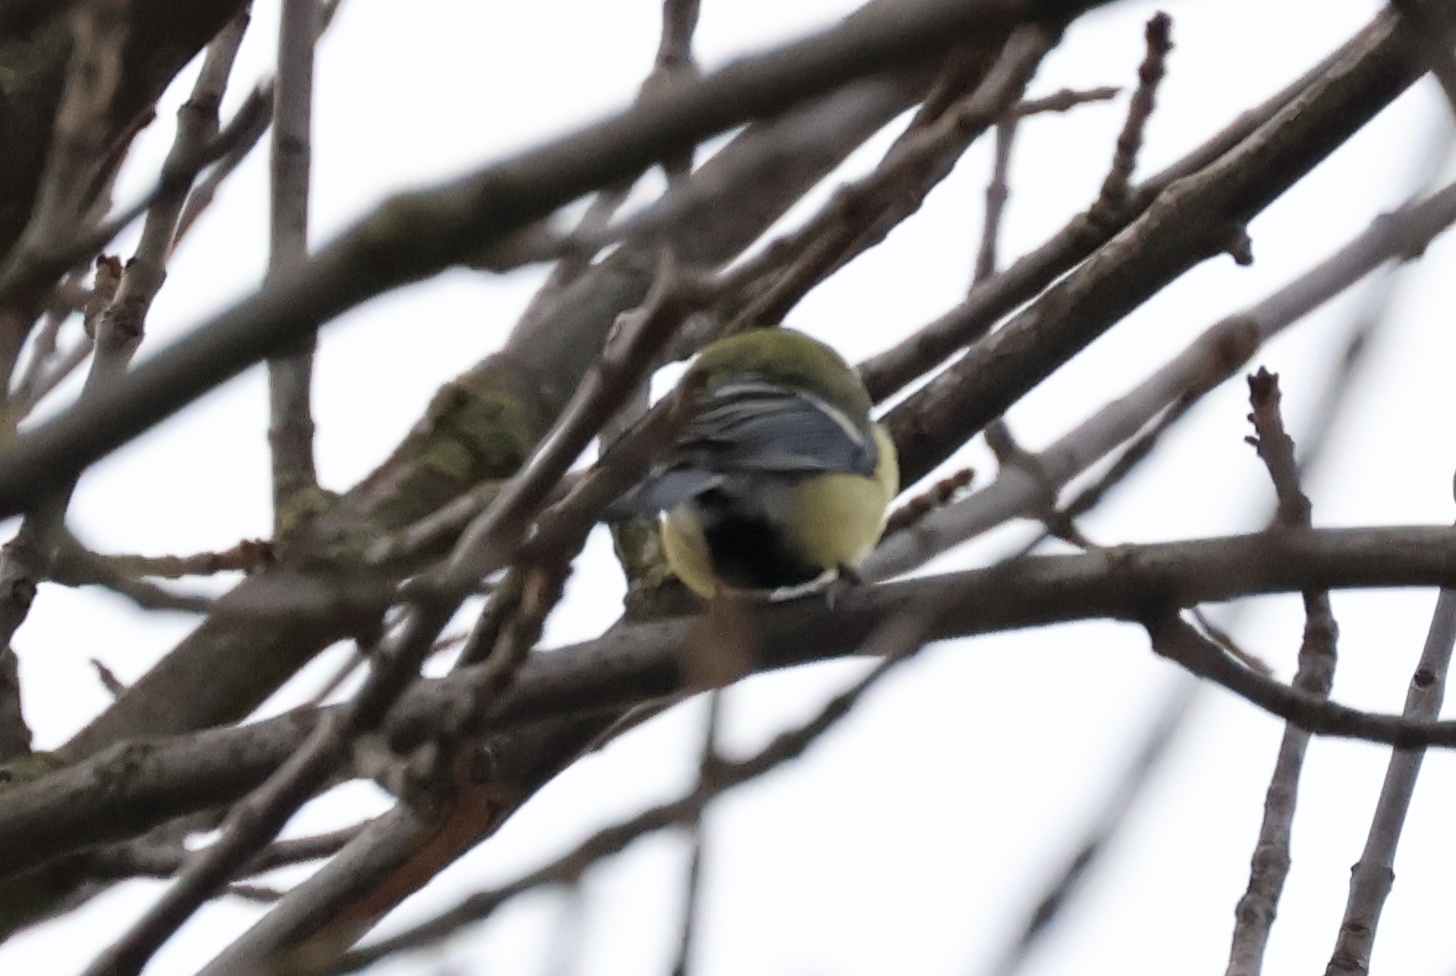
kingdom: Animalia
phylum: Chordata
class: Aves
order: Passeriformes
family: Paridae
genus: Parus
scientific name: Parus major
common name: Great tit
